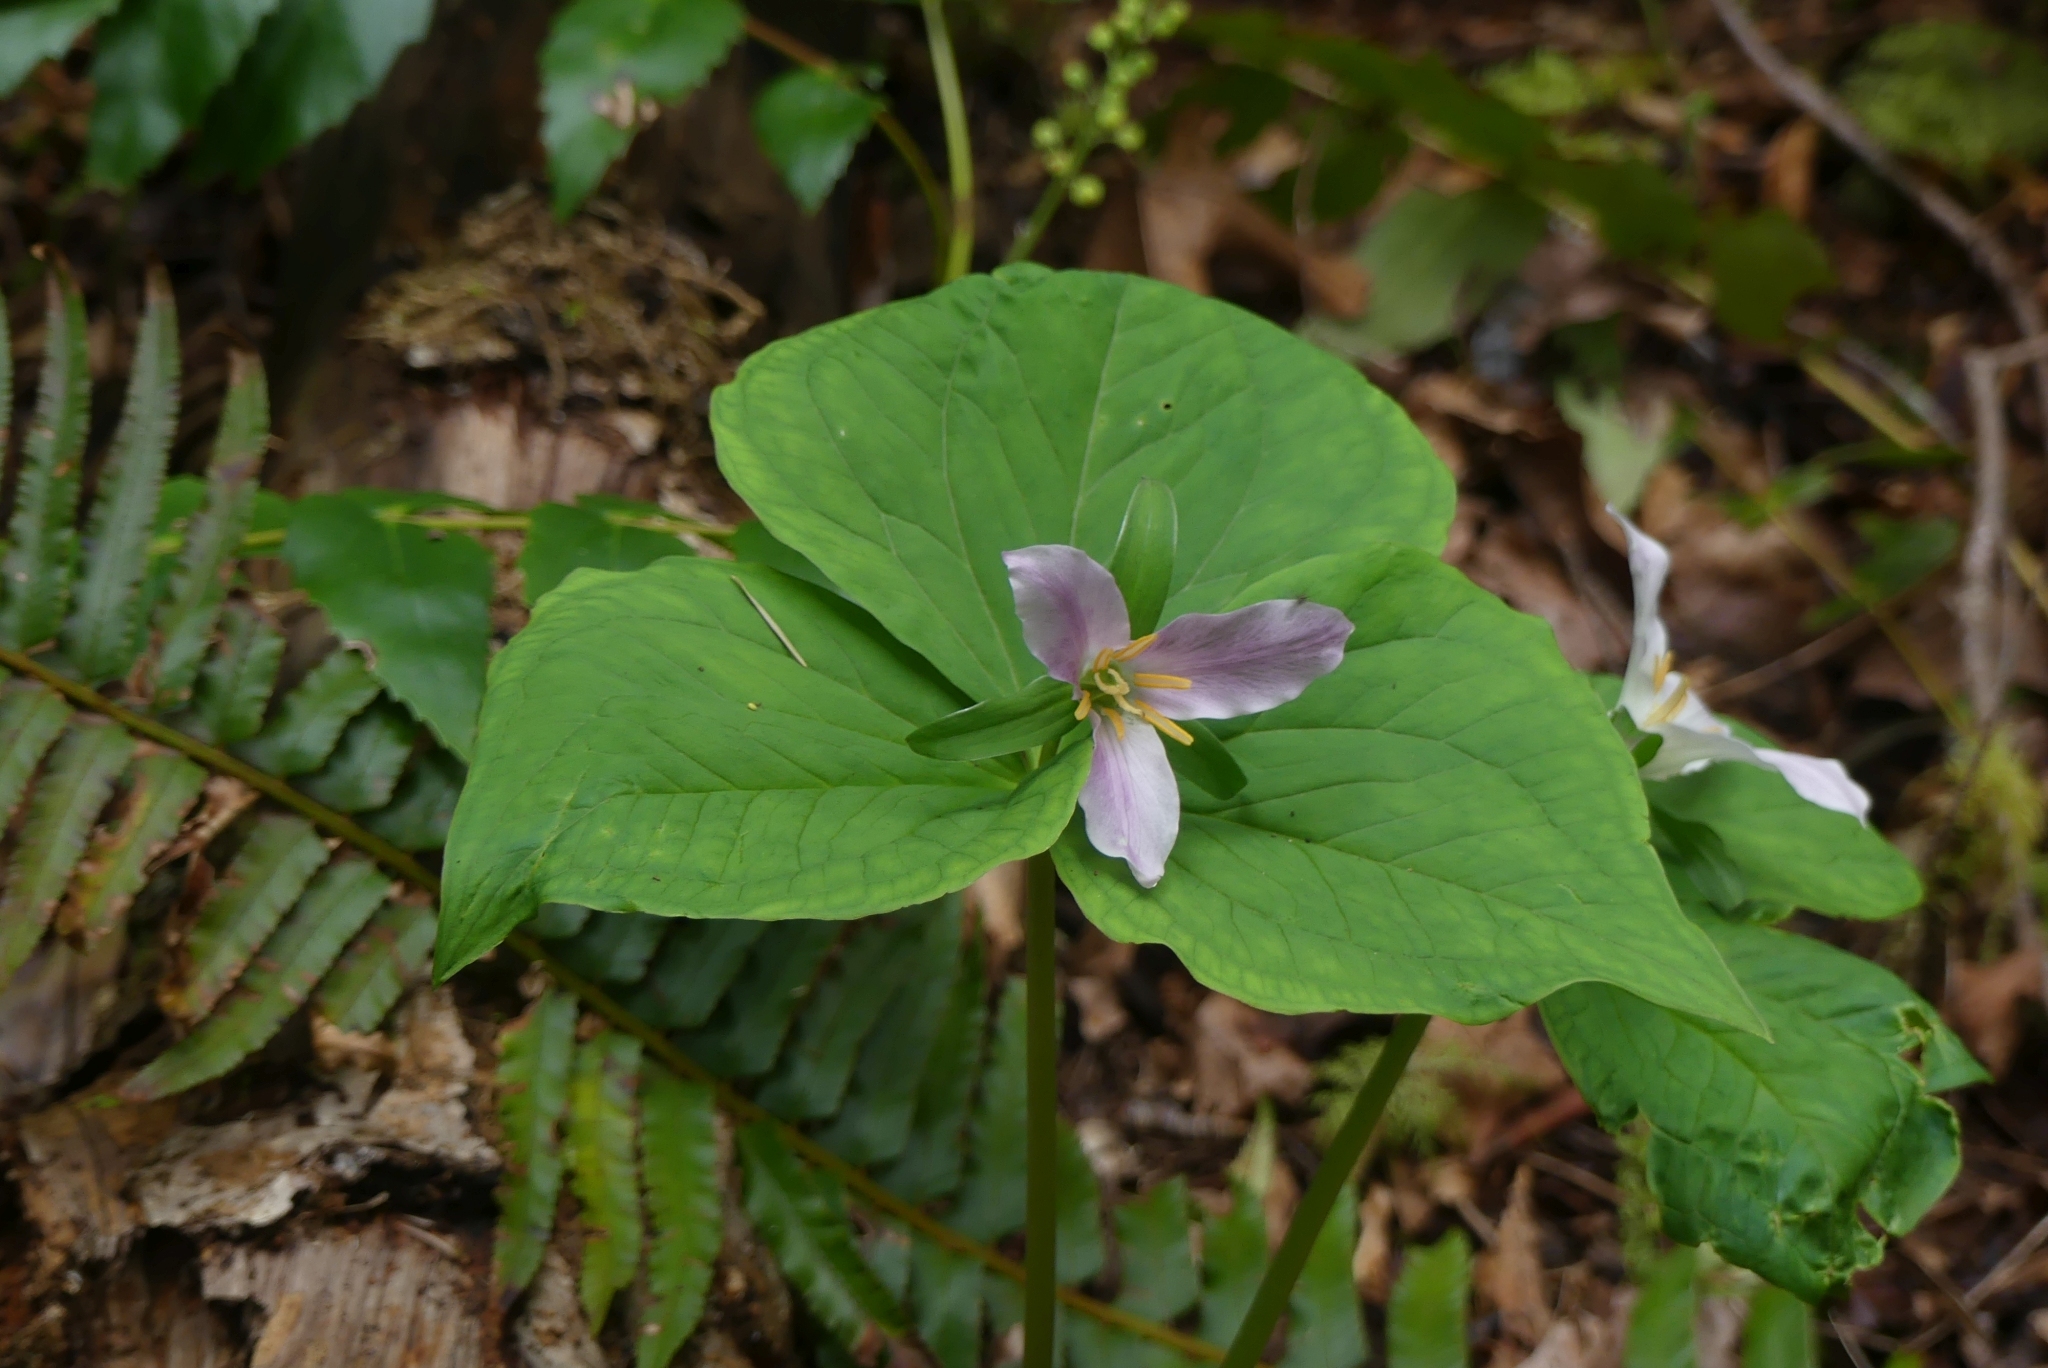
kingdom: Plantae
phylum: Tracheophyta
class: Liliopsida
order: Liliales
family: Melanthiaceae
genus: Trillium
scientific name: Trillium ovatum
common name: Pacific trillium
